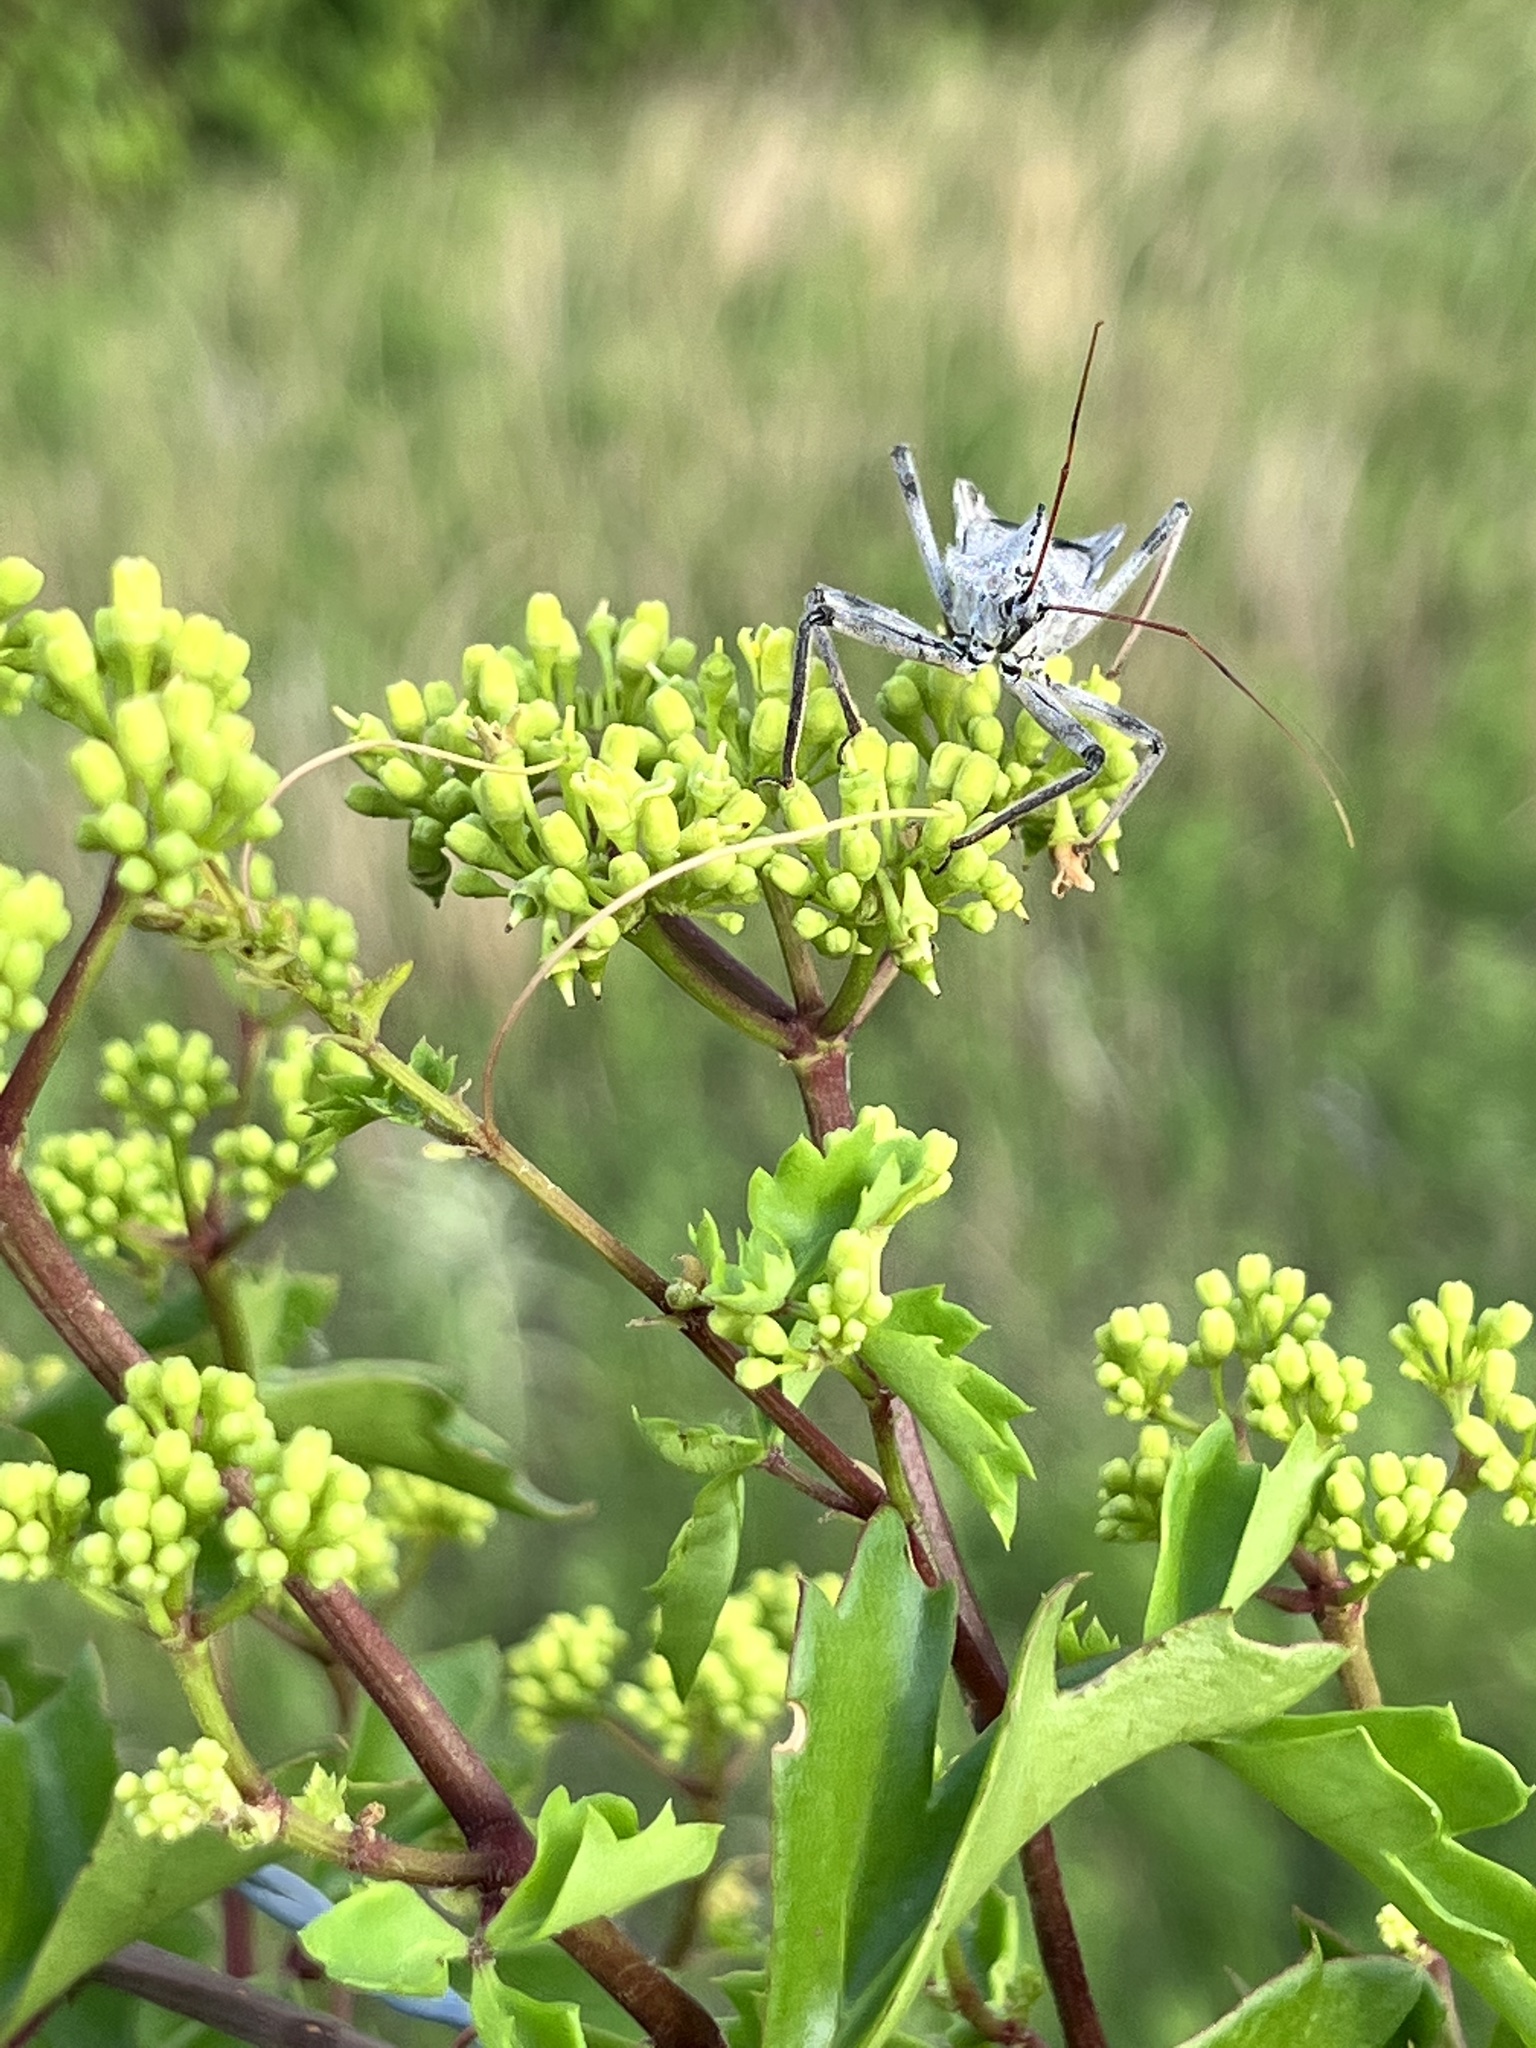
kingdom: Animalia
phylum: Arthropoda
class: Insecta
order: Hemiptera
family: Reduviidae
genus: Arilus
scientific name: Arilus cristatus
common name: North american wheel bug
